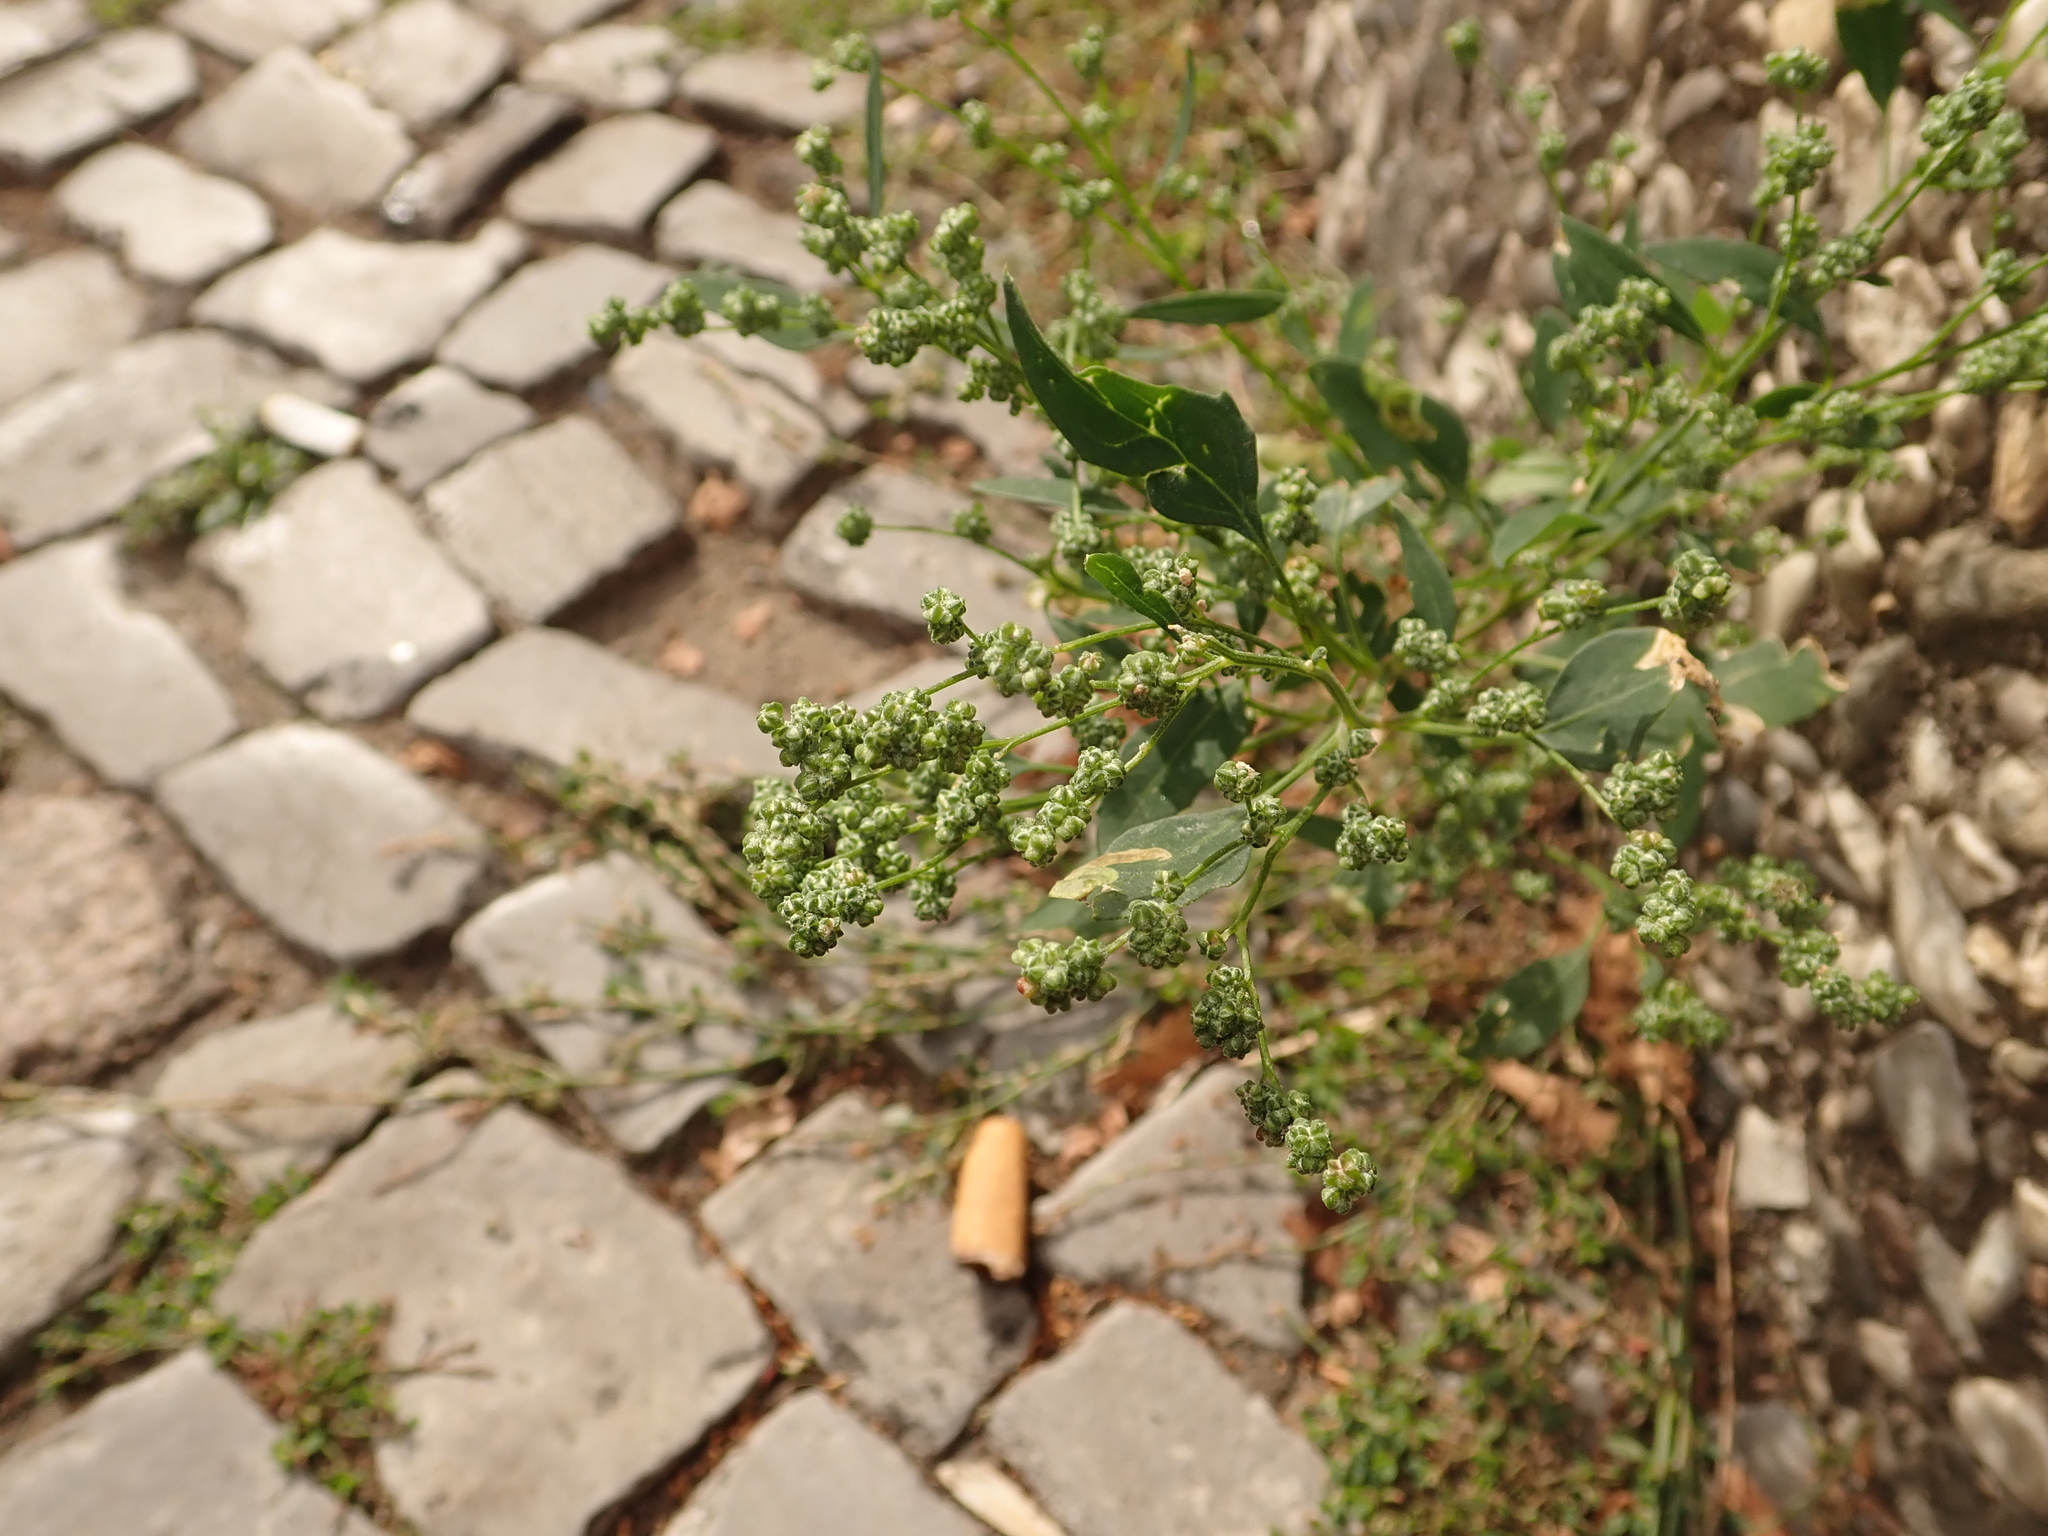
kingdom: Plantae
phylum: Tracheophyta
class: Magnoliopsida
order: Caryophyllales
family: Amaranthaceae
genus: Chenopodium
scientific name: Chenopodium album
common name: Fat-hen
